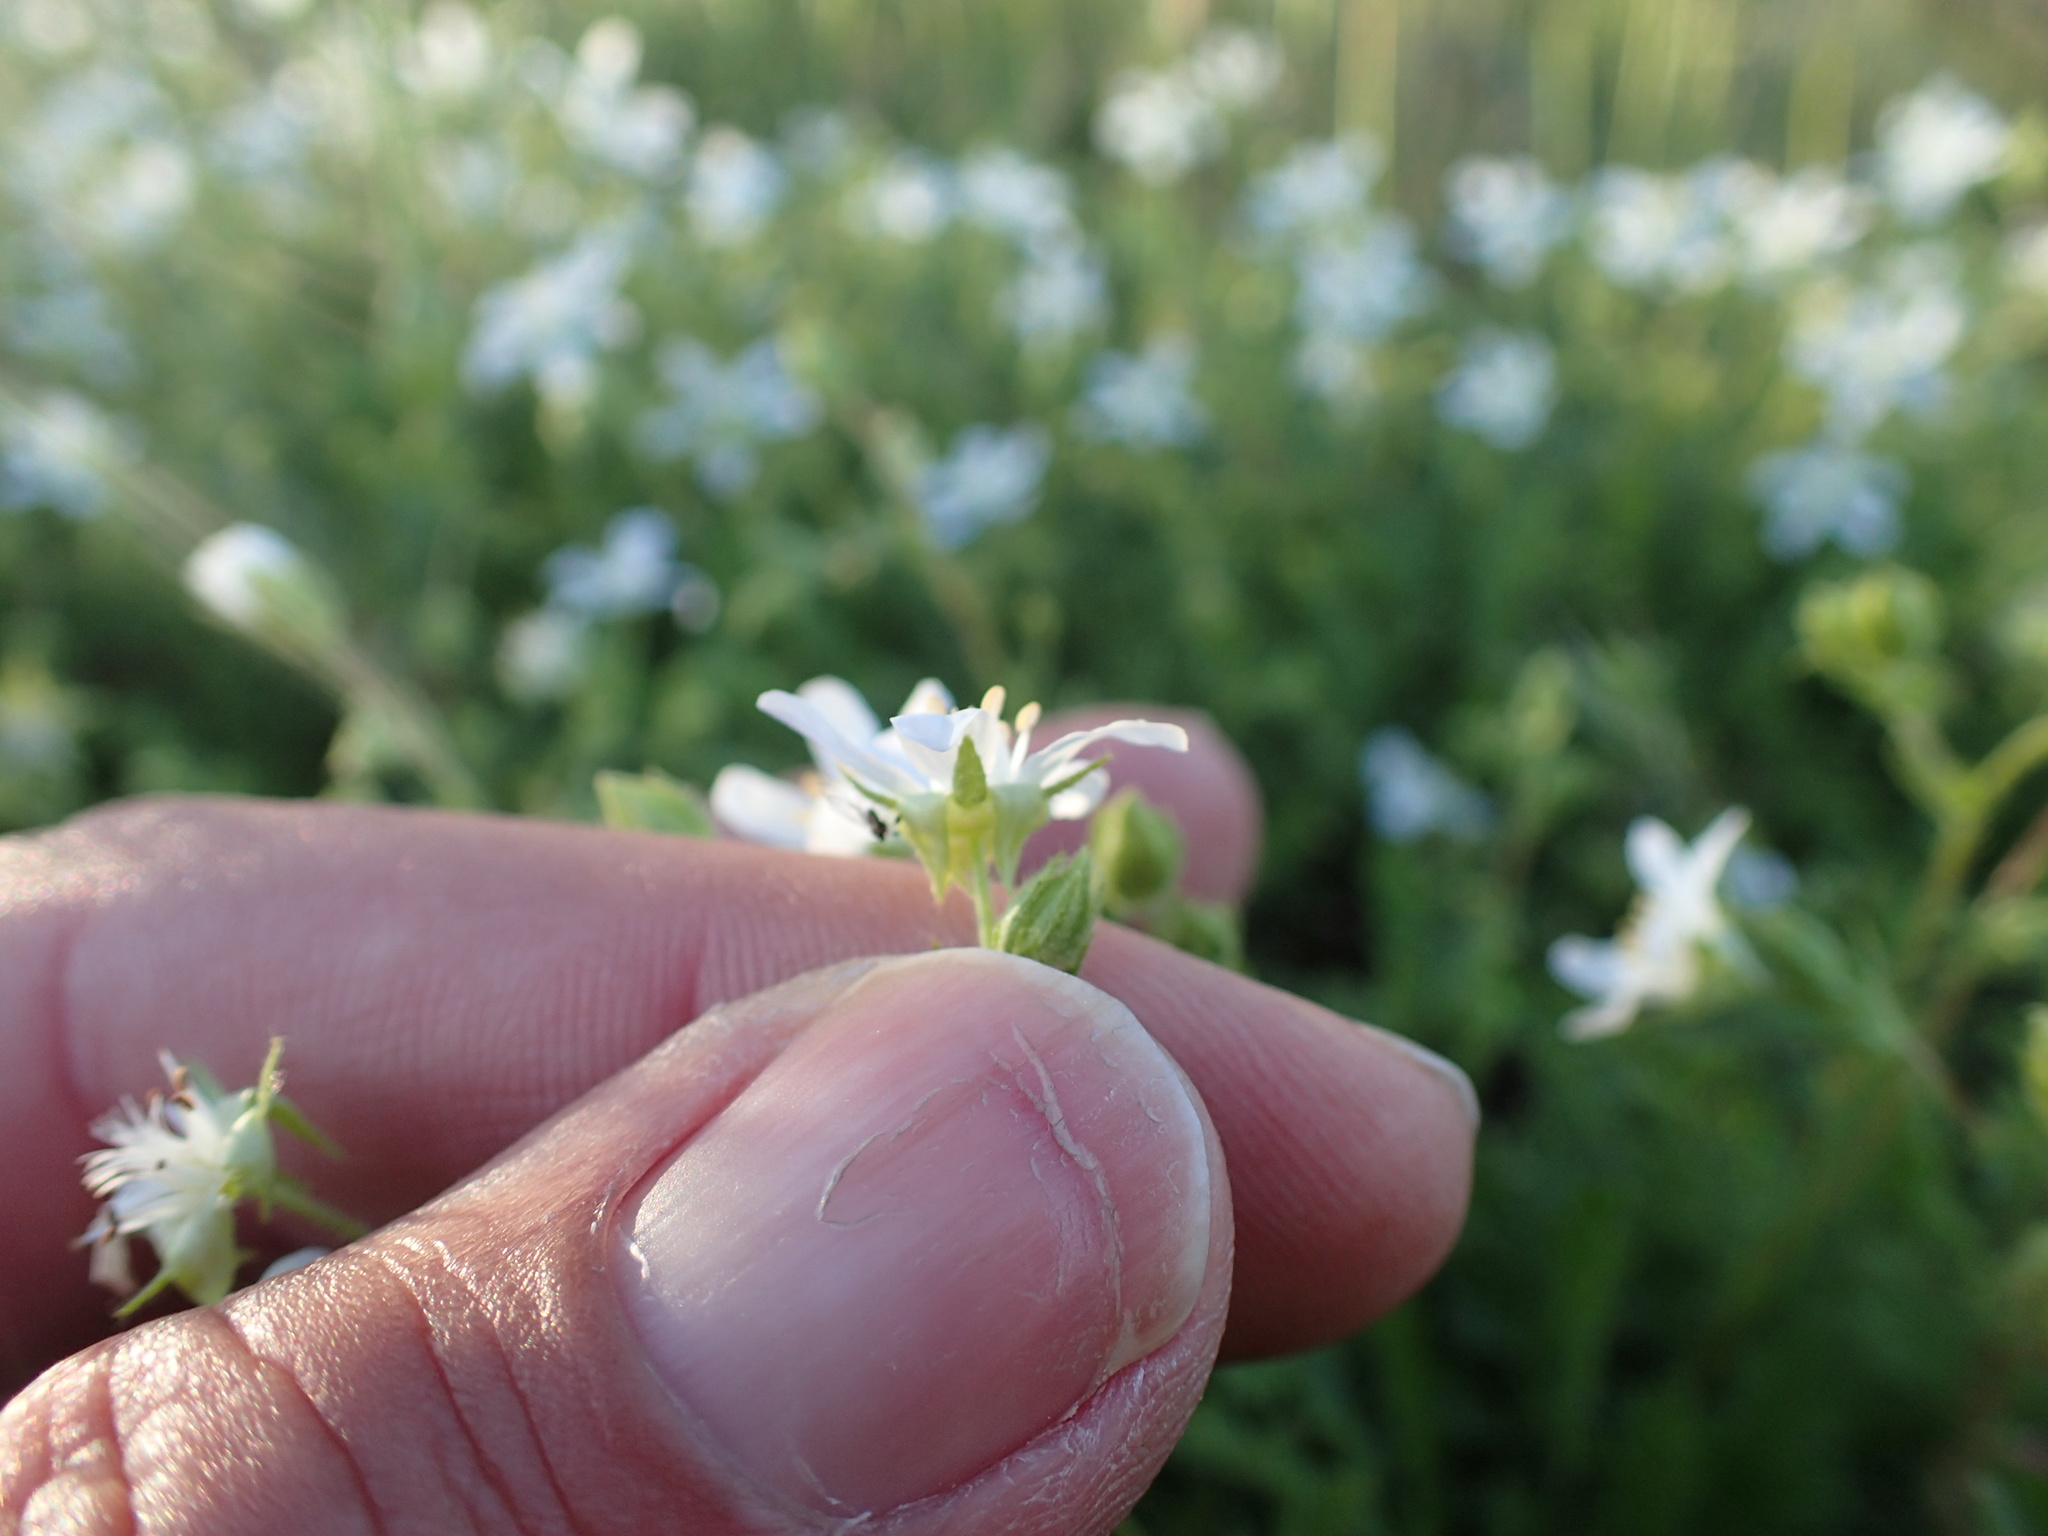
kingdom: Plantae
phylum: Tracheophyta
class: Magnoliopsida
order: Rosales
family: Rosaceae
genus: Potentilla
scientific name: Potentilla
